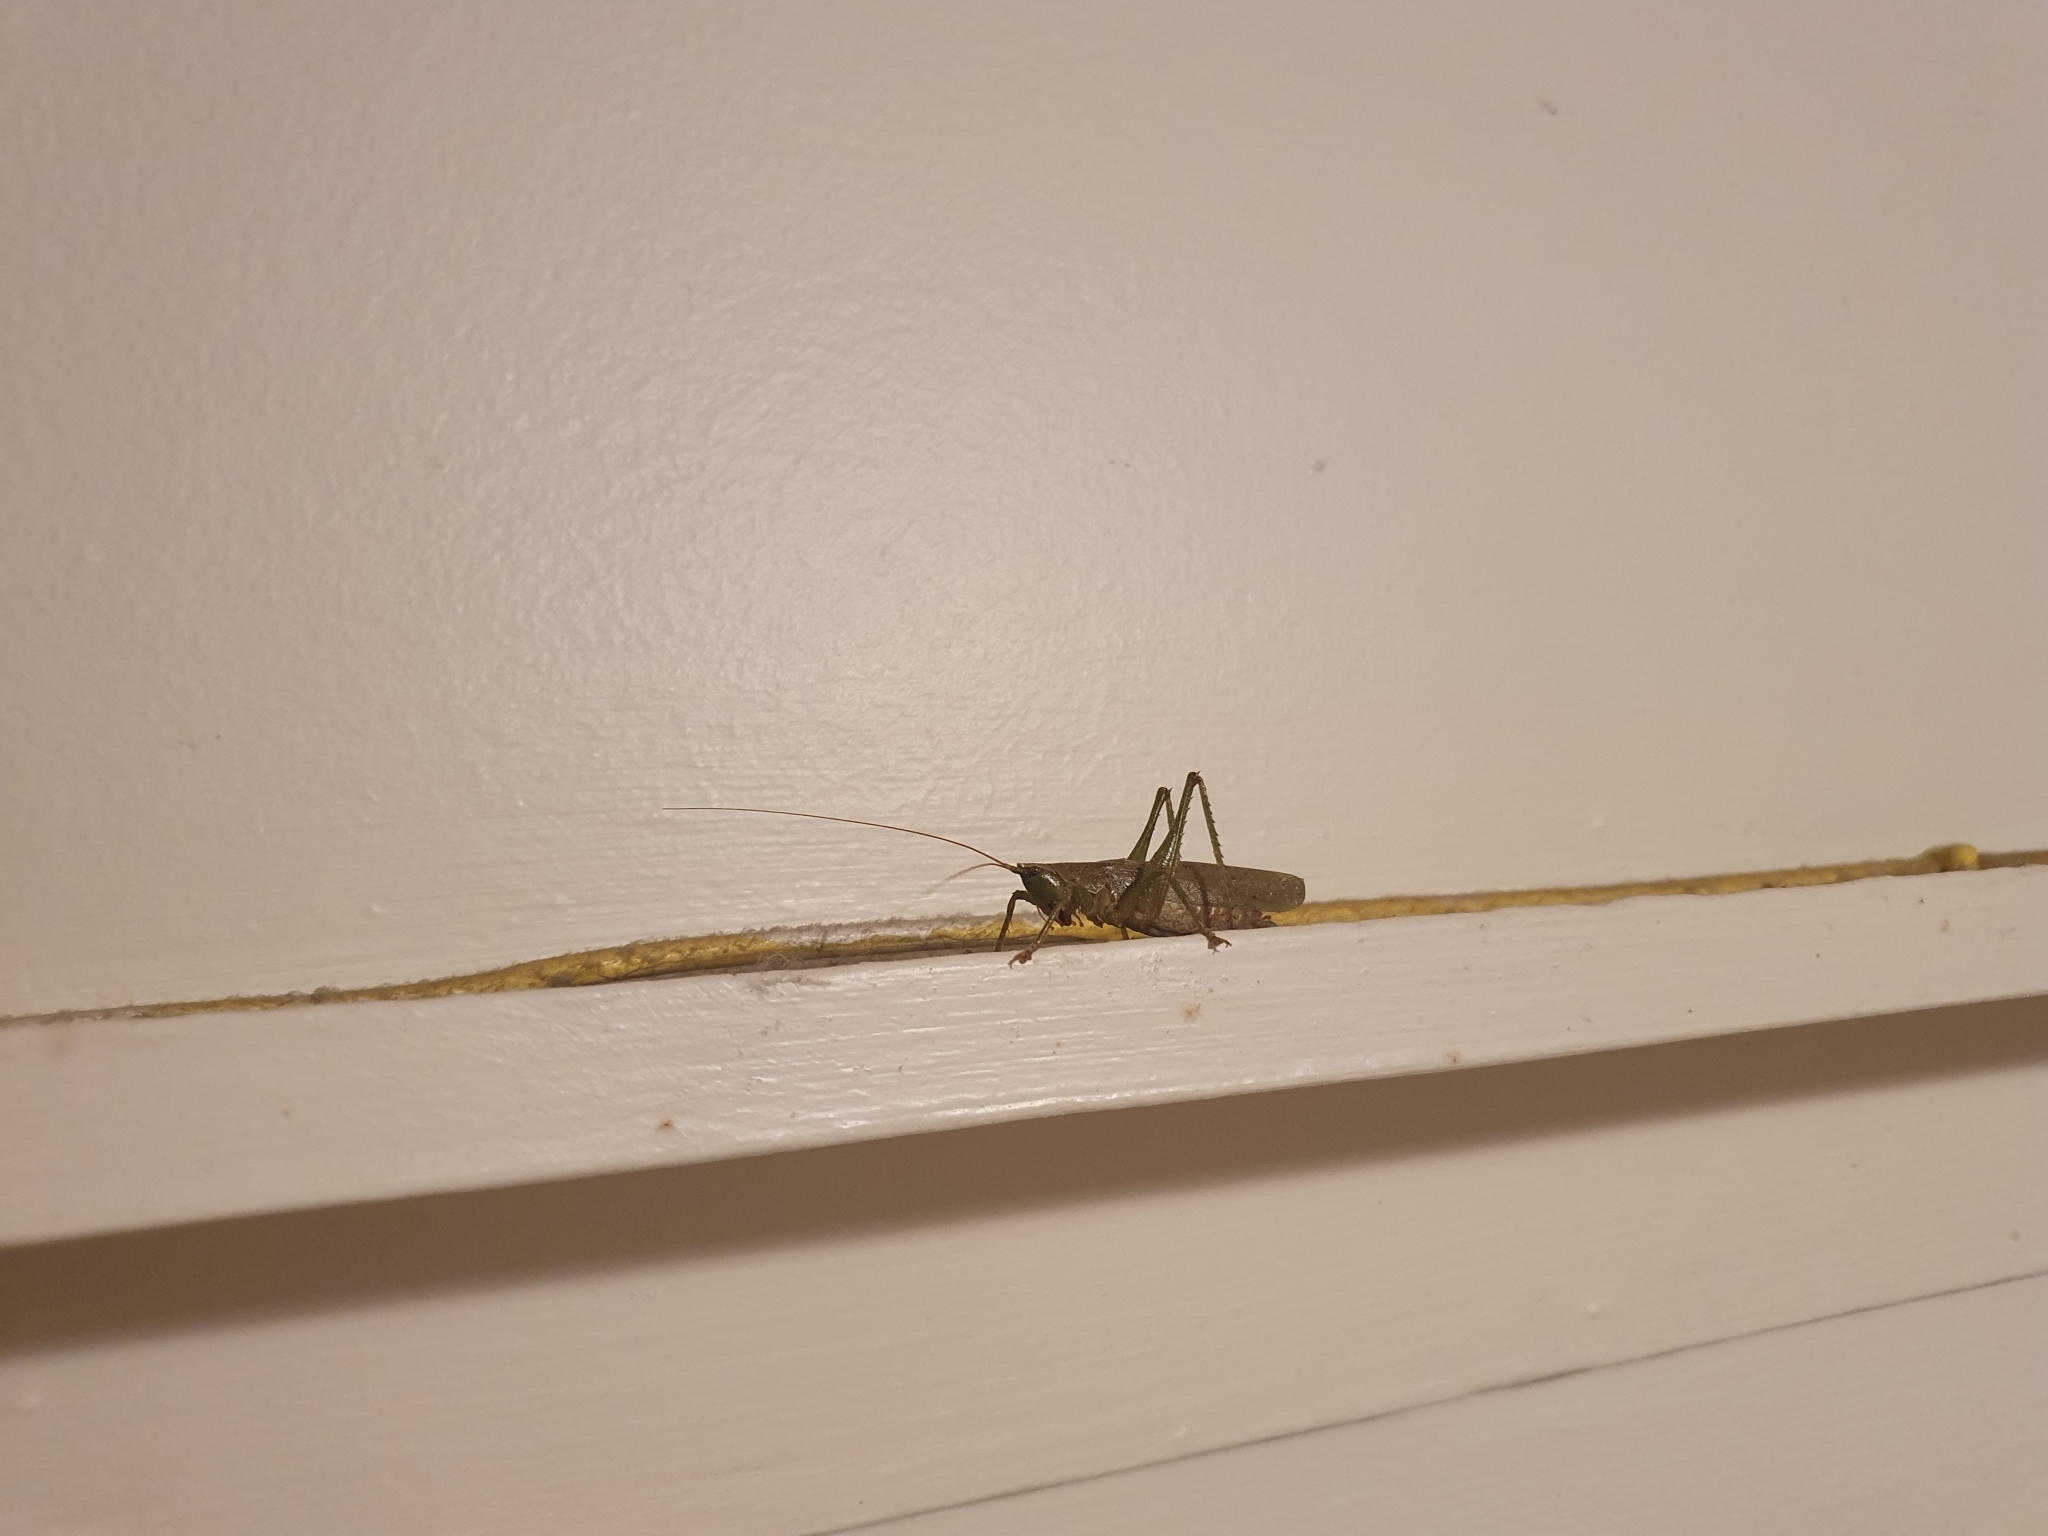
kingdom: Animalia
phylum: Arthropoda
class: Insecta
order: Orthoptera
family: Tettigoniidae
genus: Austrosalomona
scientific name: Austrosalomona falcata
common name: Olive-green coastal katydid
